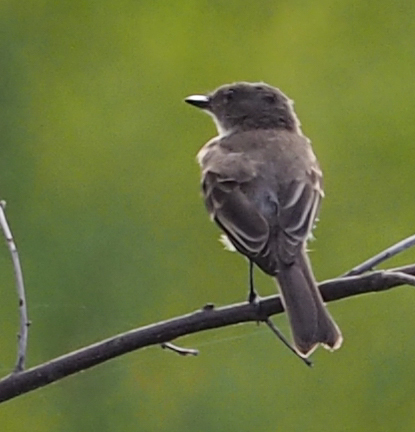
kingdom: Animalia
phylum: Chordata
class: Aves
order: Passeriformes
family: Tyrannidae
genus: Sayornis
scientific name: Sayornis phoebe
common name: Eastern phoebe
